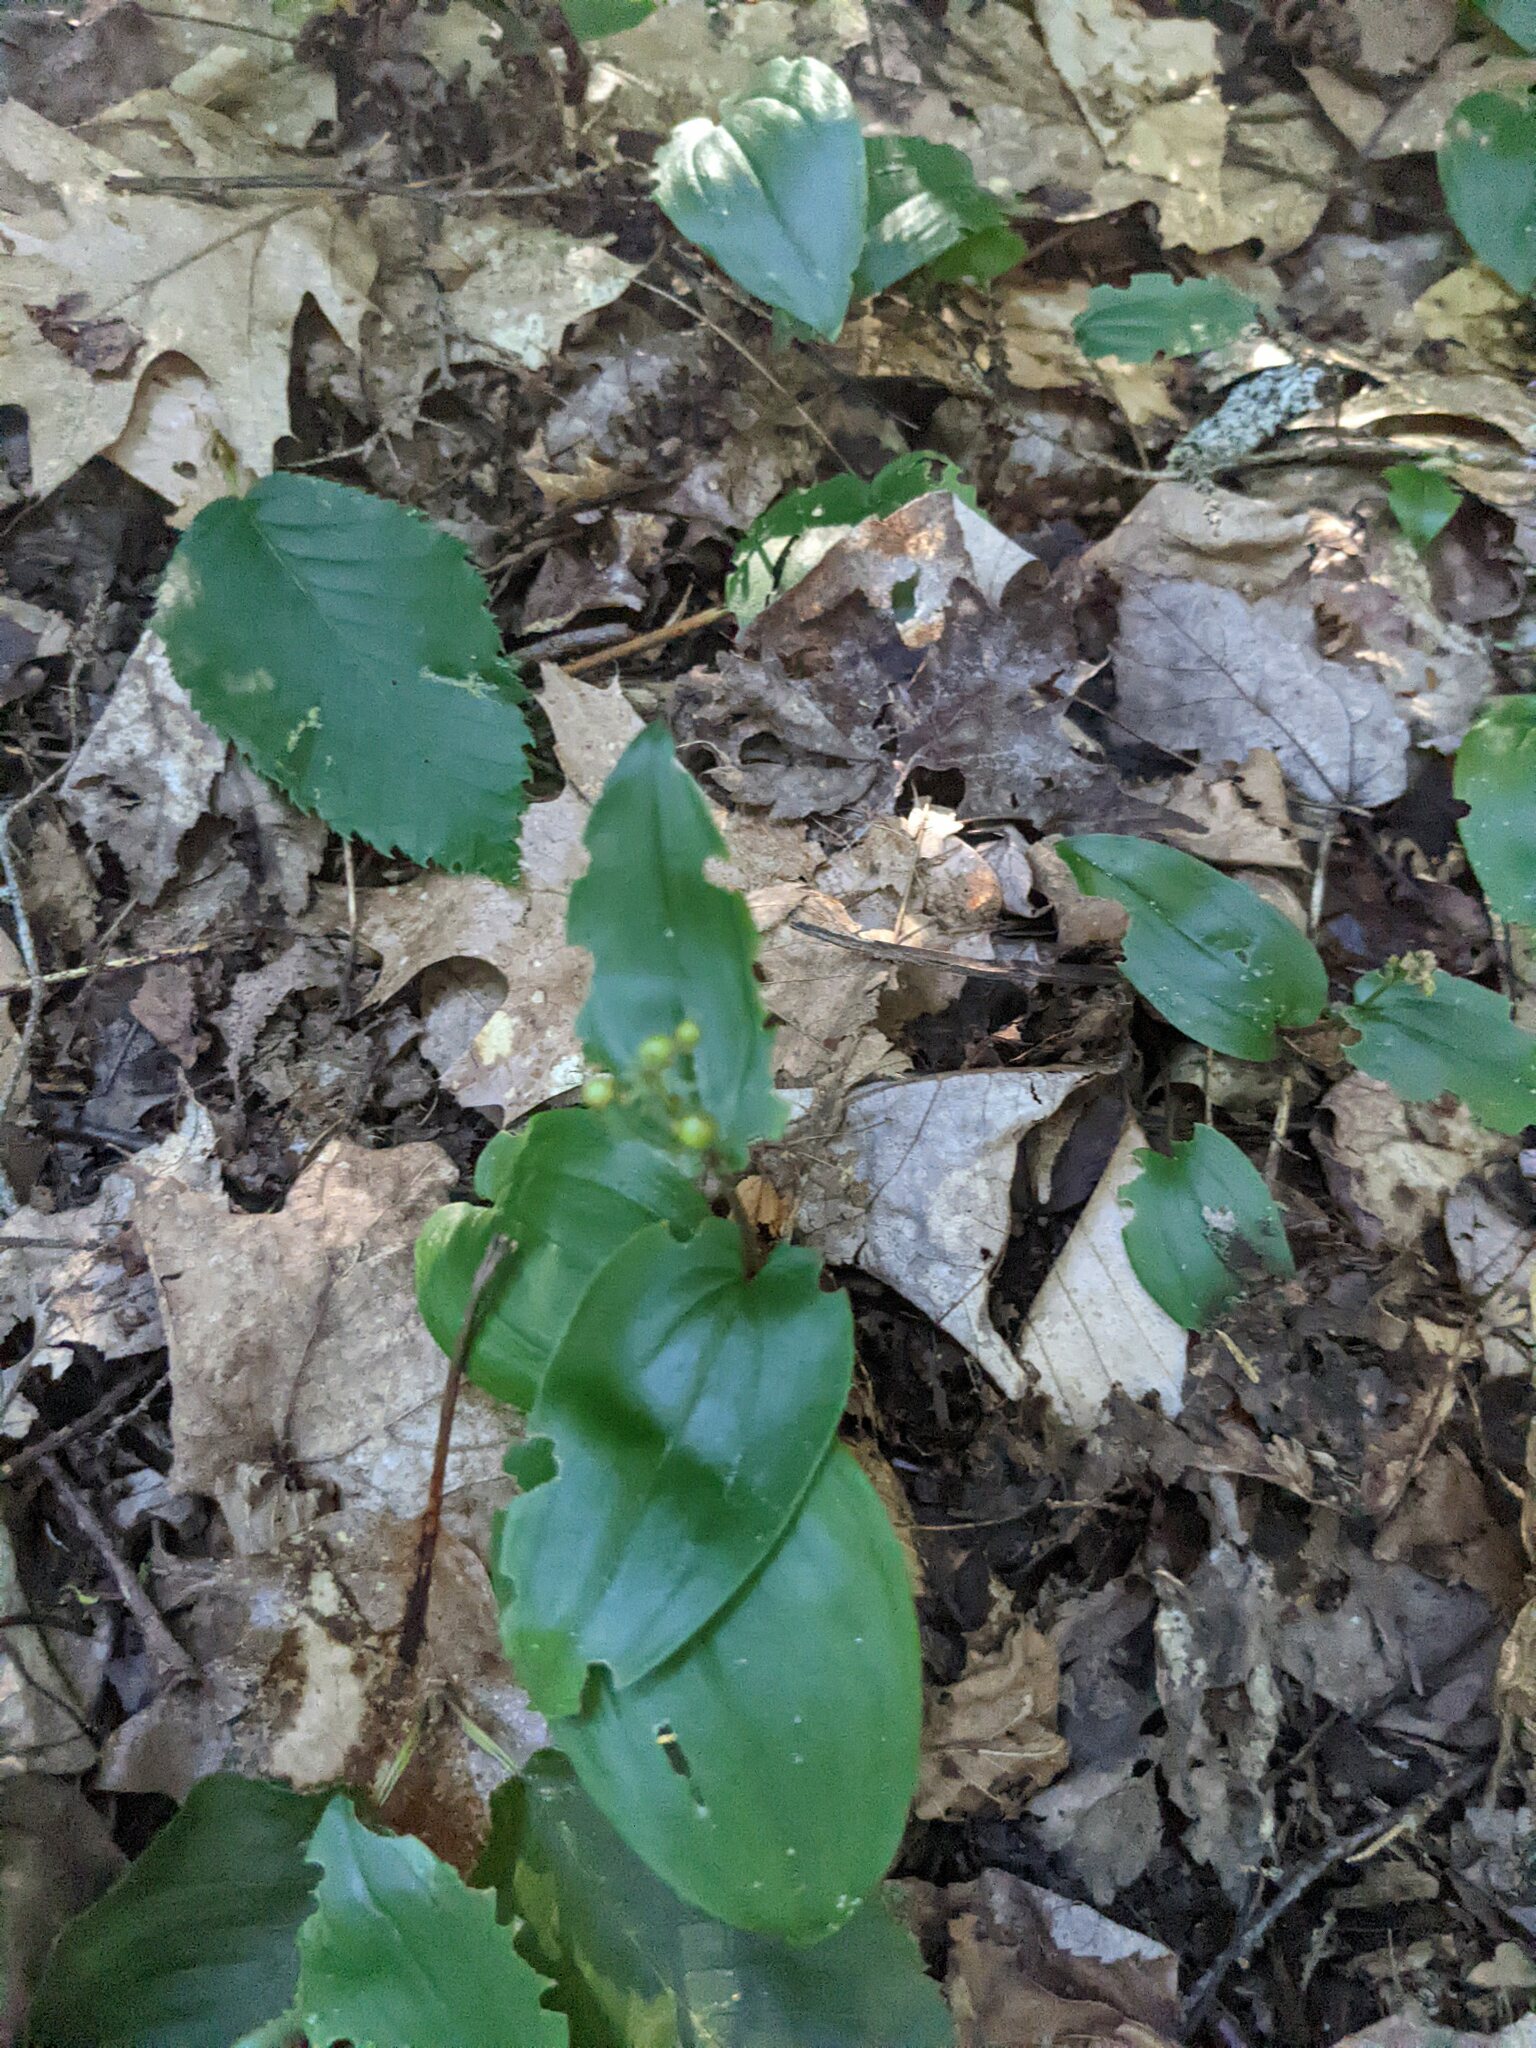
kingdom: Plantae
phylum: Tracheophyta
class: Liliopsida
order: Asparagales
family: Asparagaceae
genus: Maianthemum
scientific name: Maianthemum canadense
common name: False lily-of-the-valley
